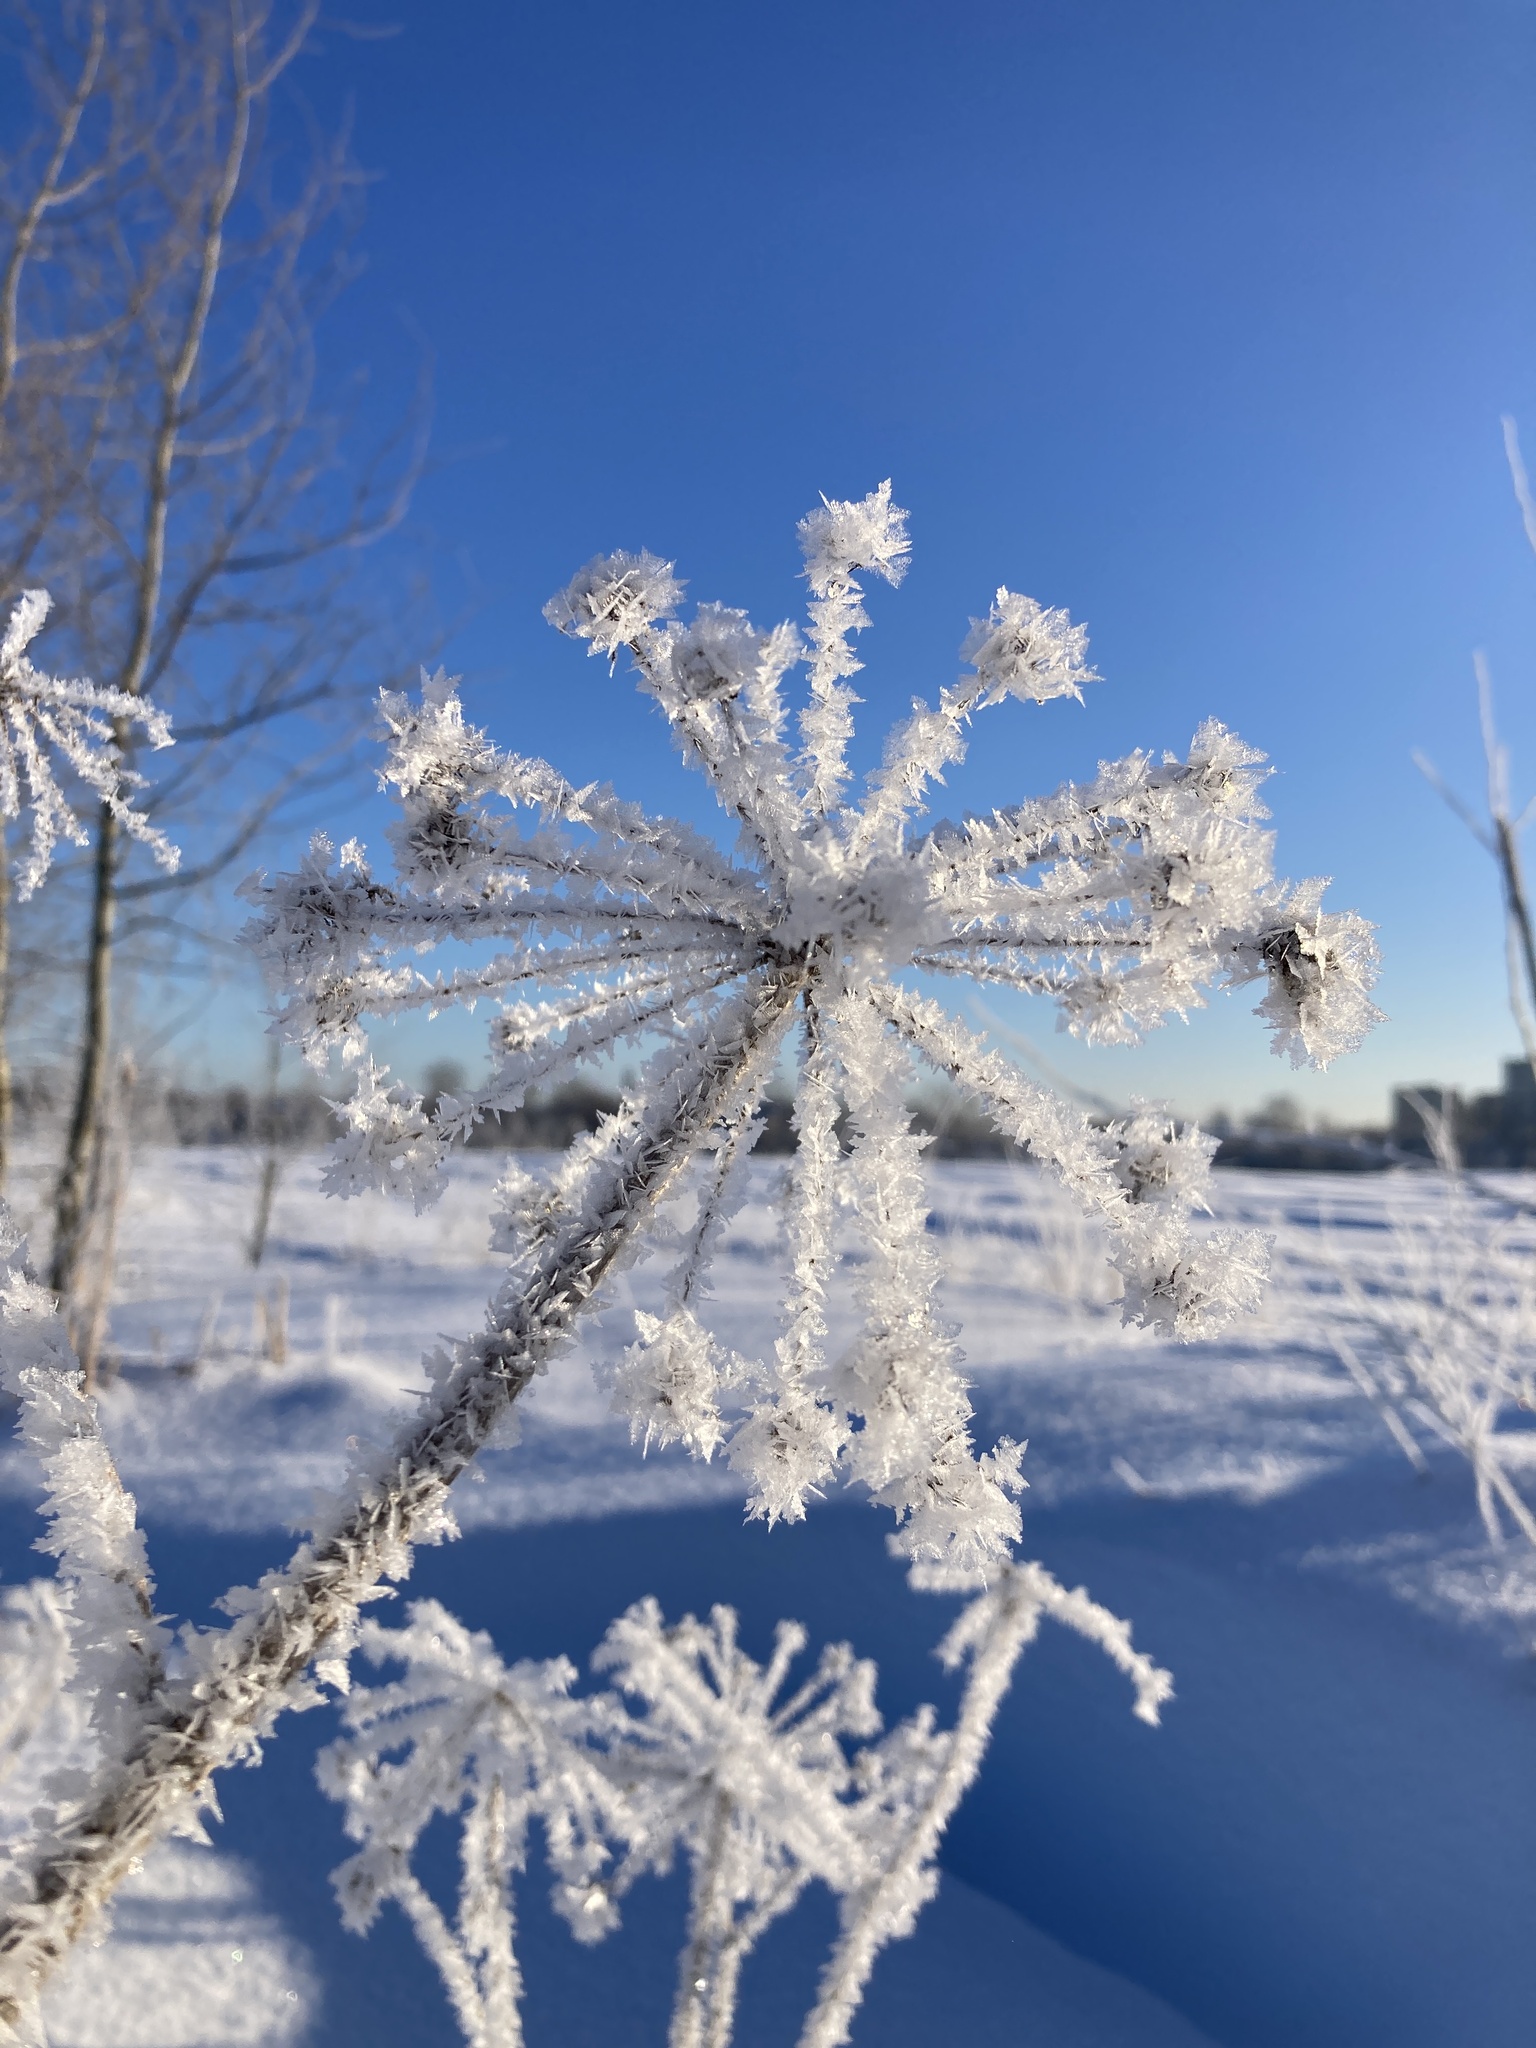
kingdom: Plantae
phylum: Tracheophyta
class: Magnoliopsida
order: Apiales
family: Apiaceae
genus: Heracleum
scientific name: Heracleum sosnowskyi
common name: Sosnowsky's hogweed
